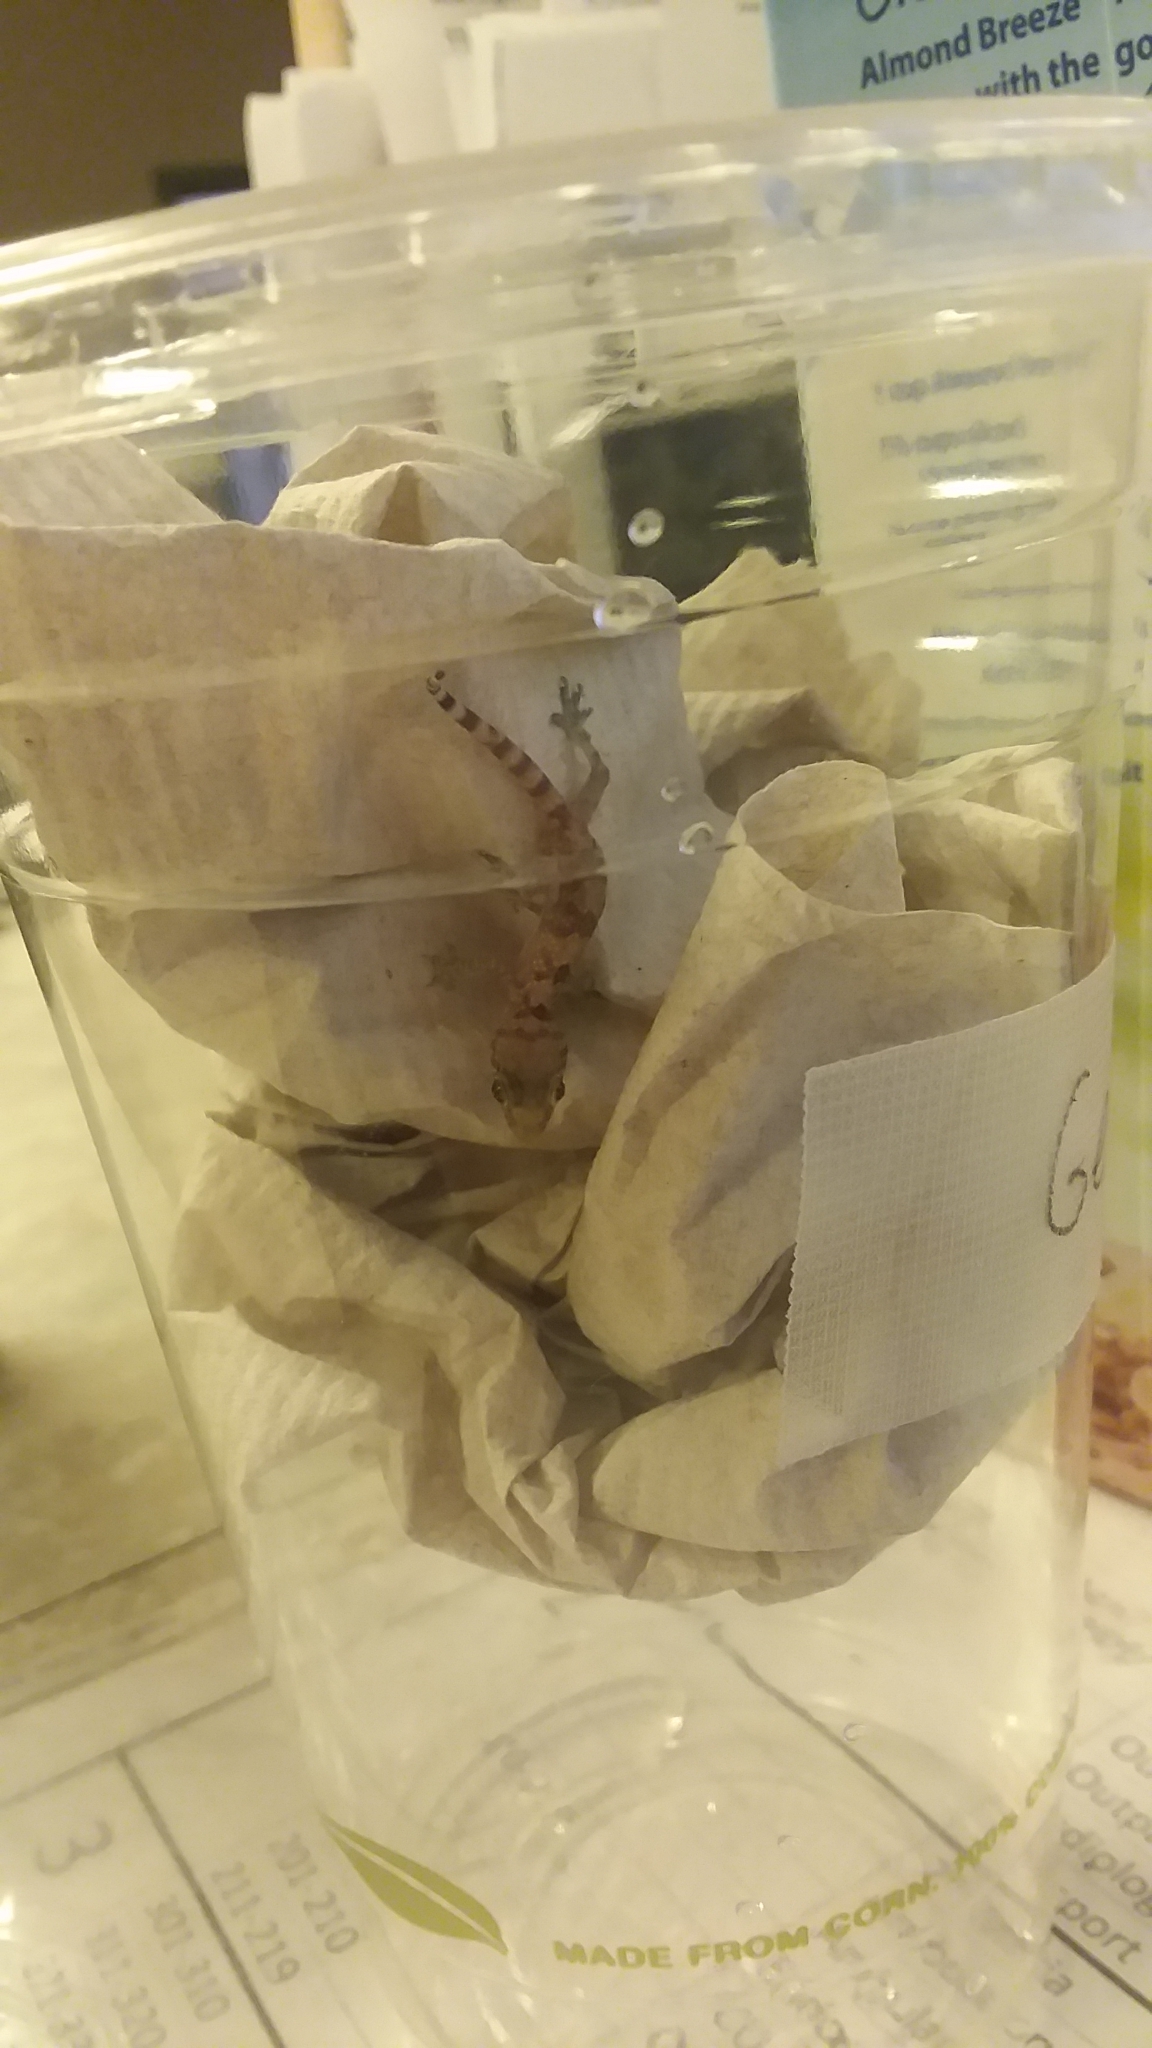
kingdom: Animalia
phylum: Chordata
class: Squamata
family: Gekkonidae
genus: Hemidactylus
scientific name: Hemidactylus turcicus
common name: Turkish gecko
